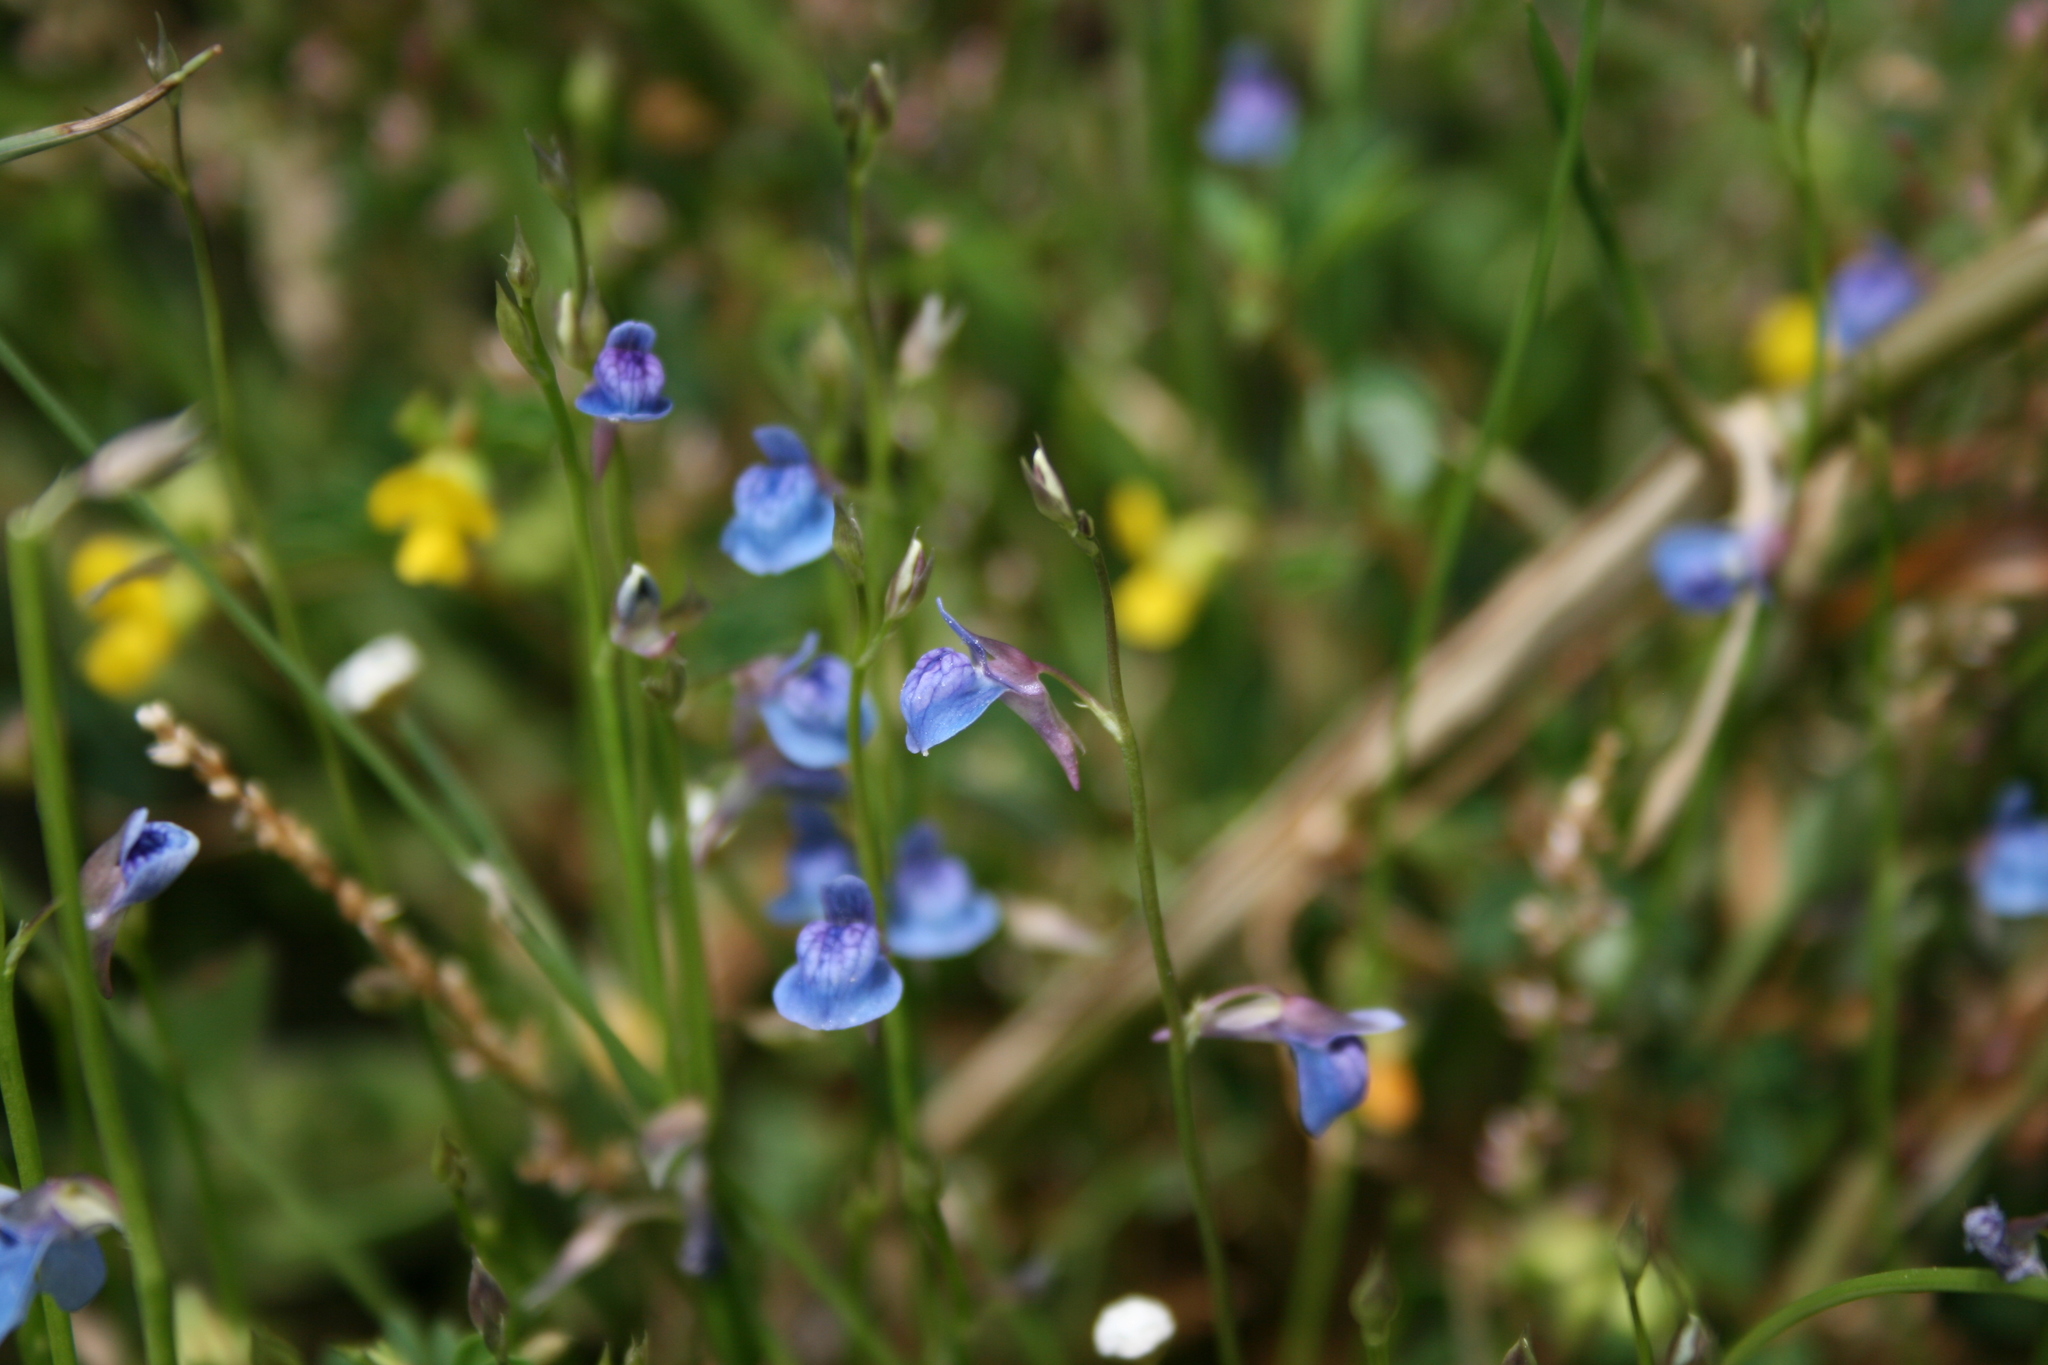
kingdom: Plantae
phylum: Tracheophyta
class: Magnoliopsida
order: Lamiales
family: Lentibulariaceae
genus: Utricularia
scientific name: Utricularia graminifolia
